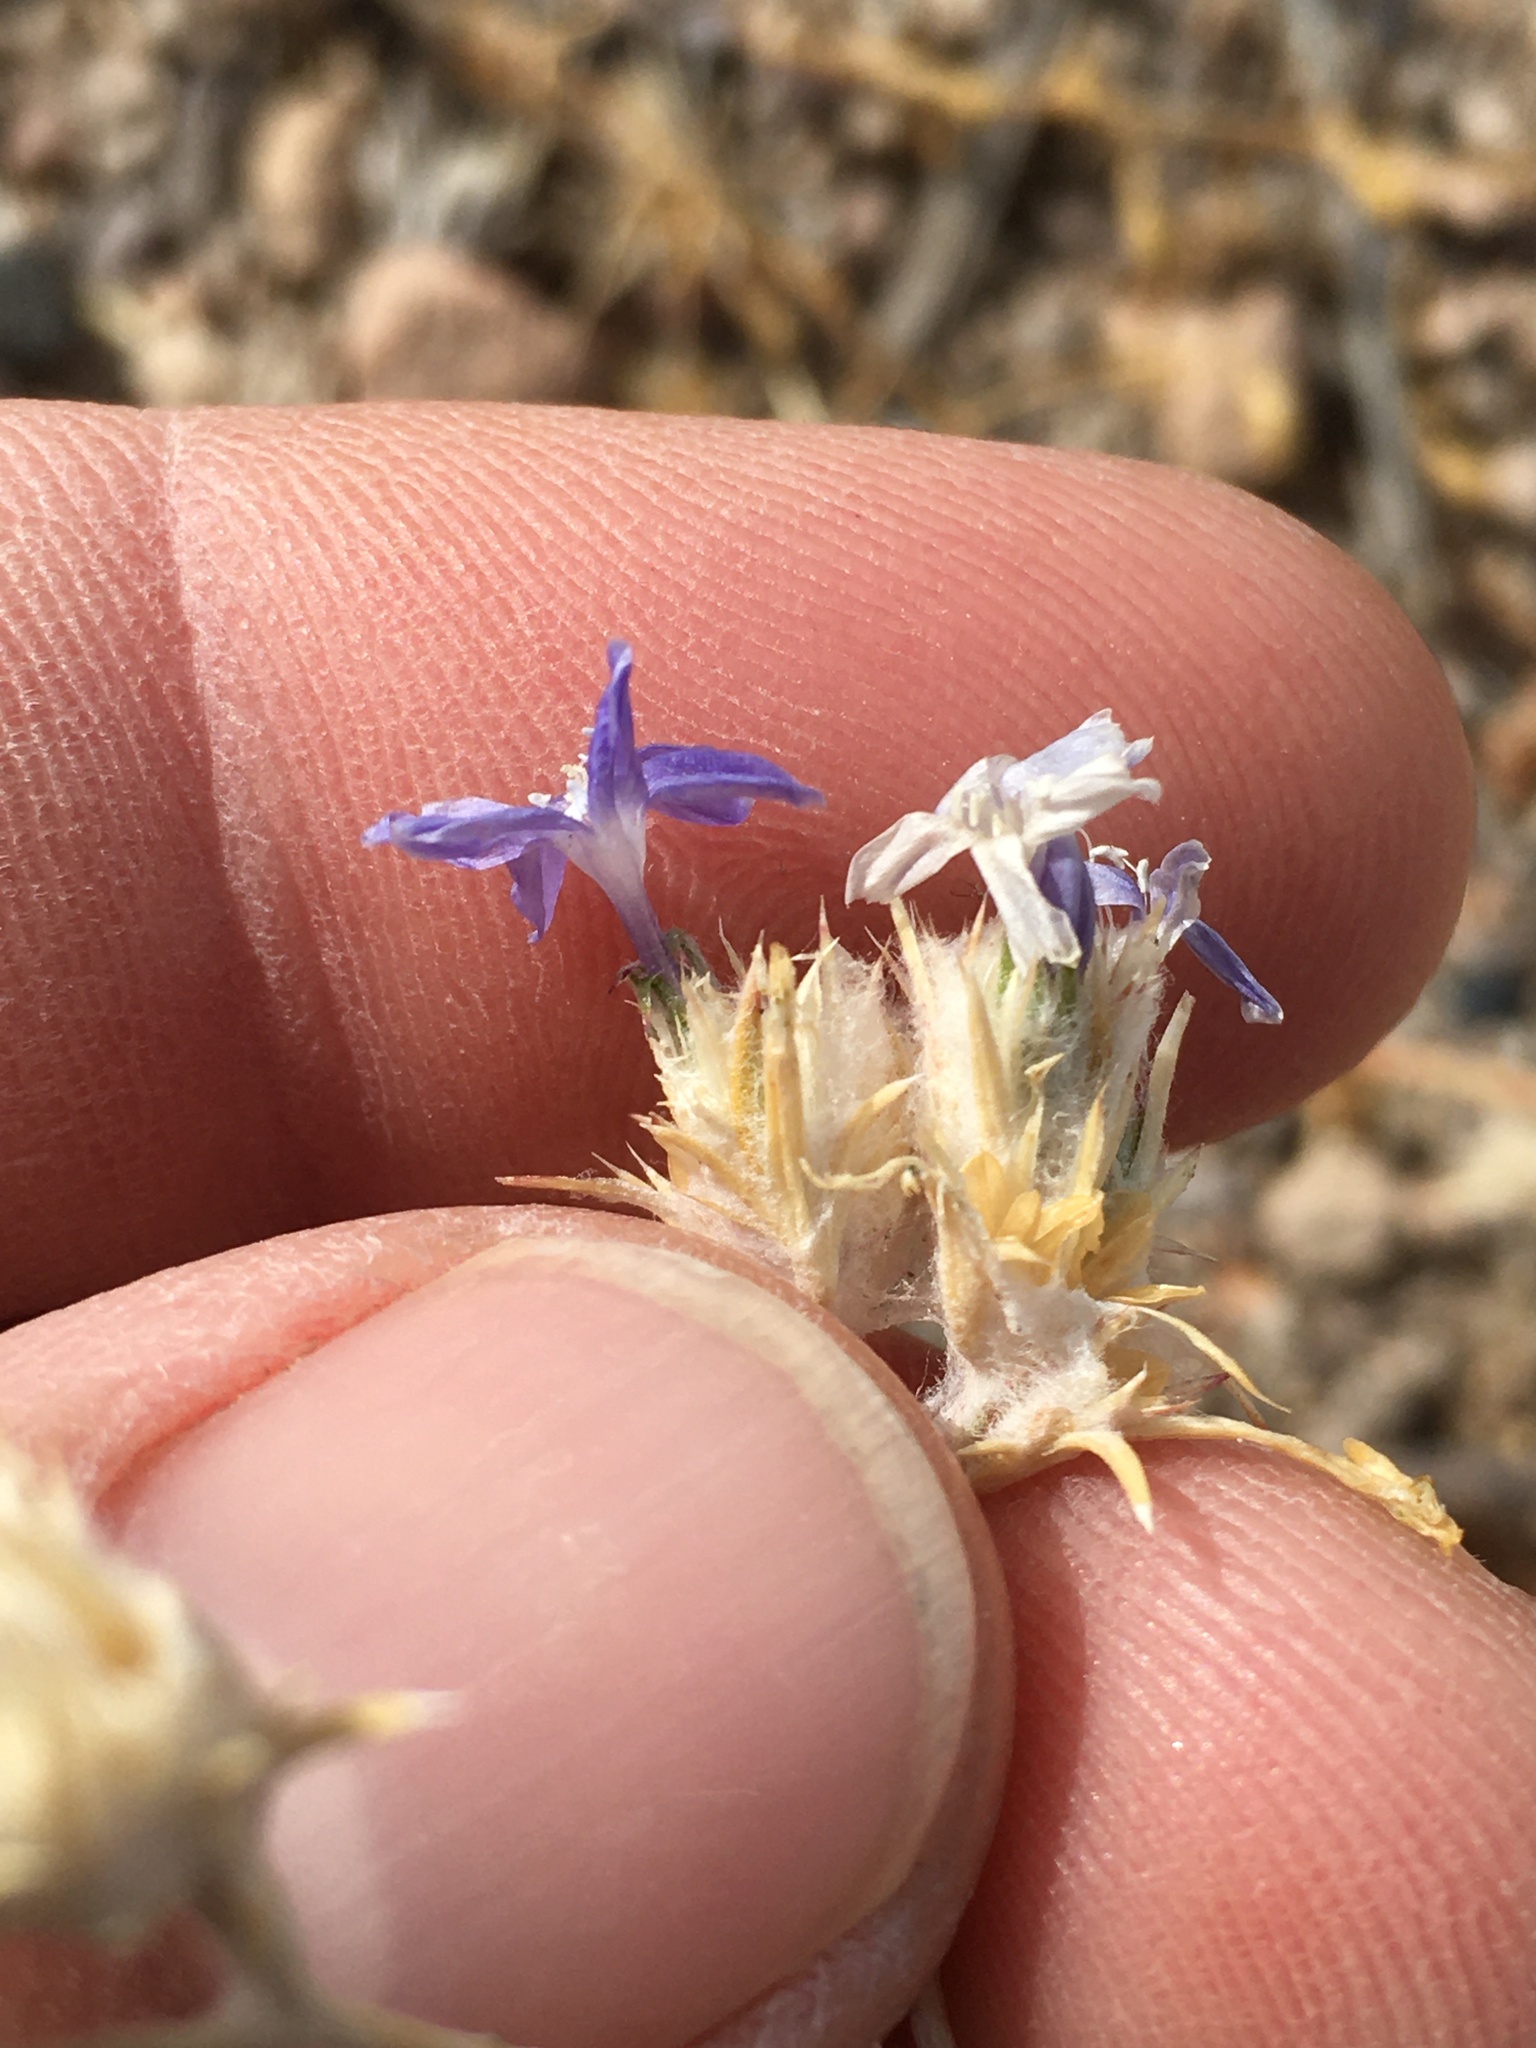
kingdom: Plantae
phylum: Tracheophyta
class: Magnoliopsida
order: Ericales
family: Polemoniaceae
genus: Eriastrum
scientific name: Eriastrum wilcoxii
